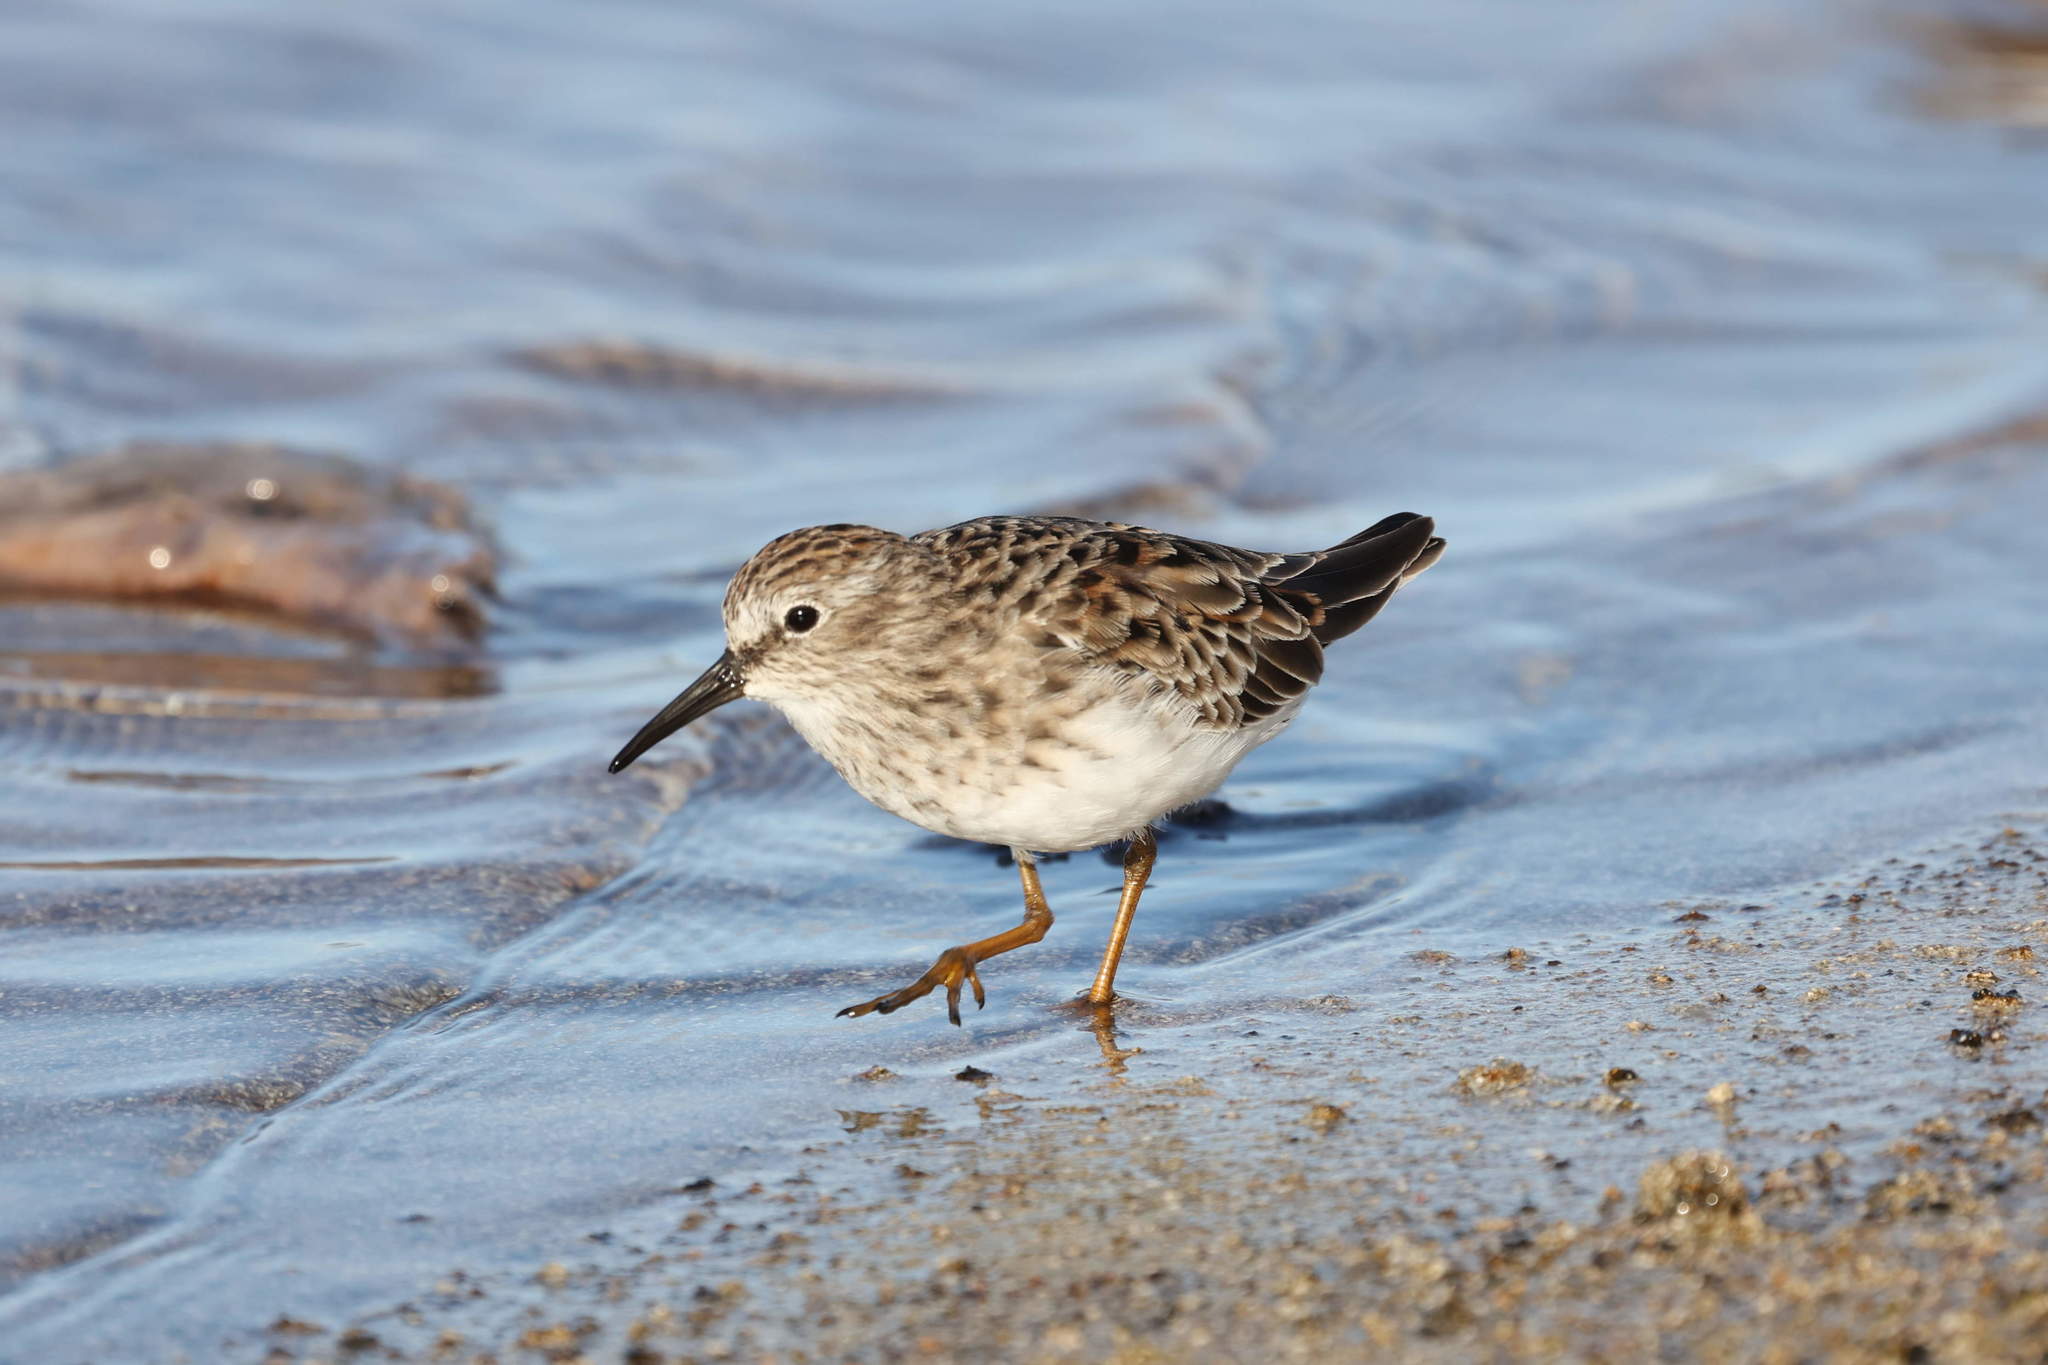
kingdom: Animalia
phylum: Chordata
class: Aves
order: Charadriiformes
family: Scolopacidae
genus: Calidris
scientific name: Calidris minutilla
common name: Least sandpiper
